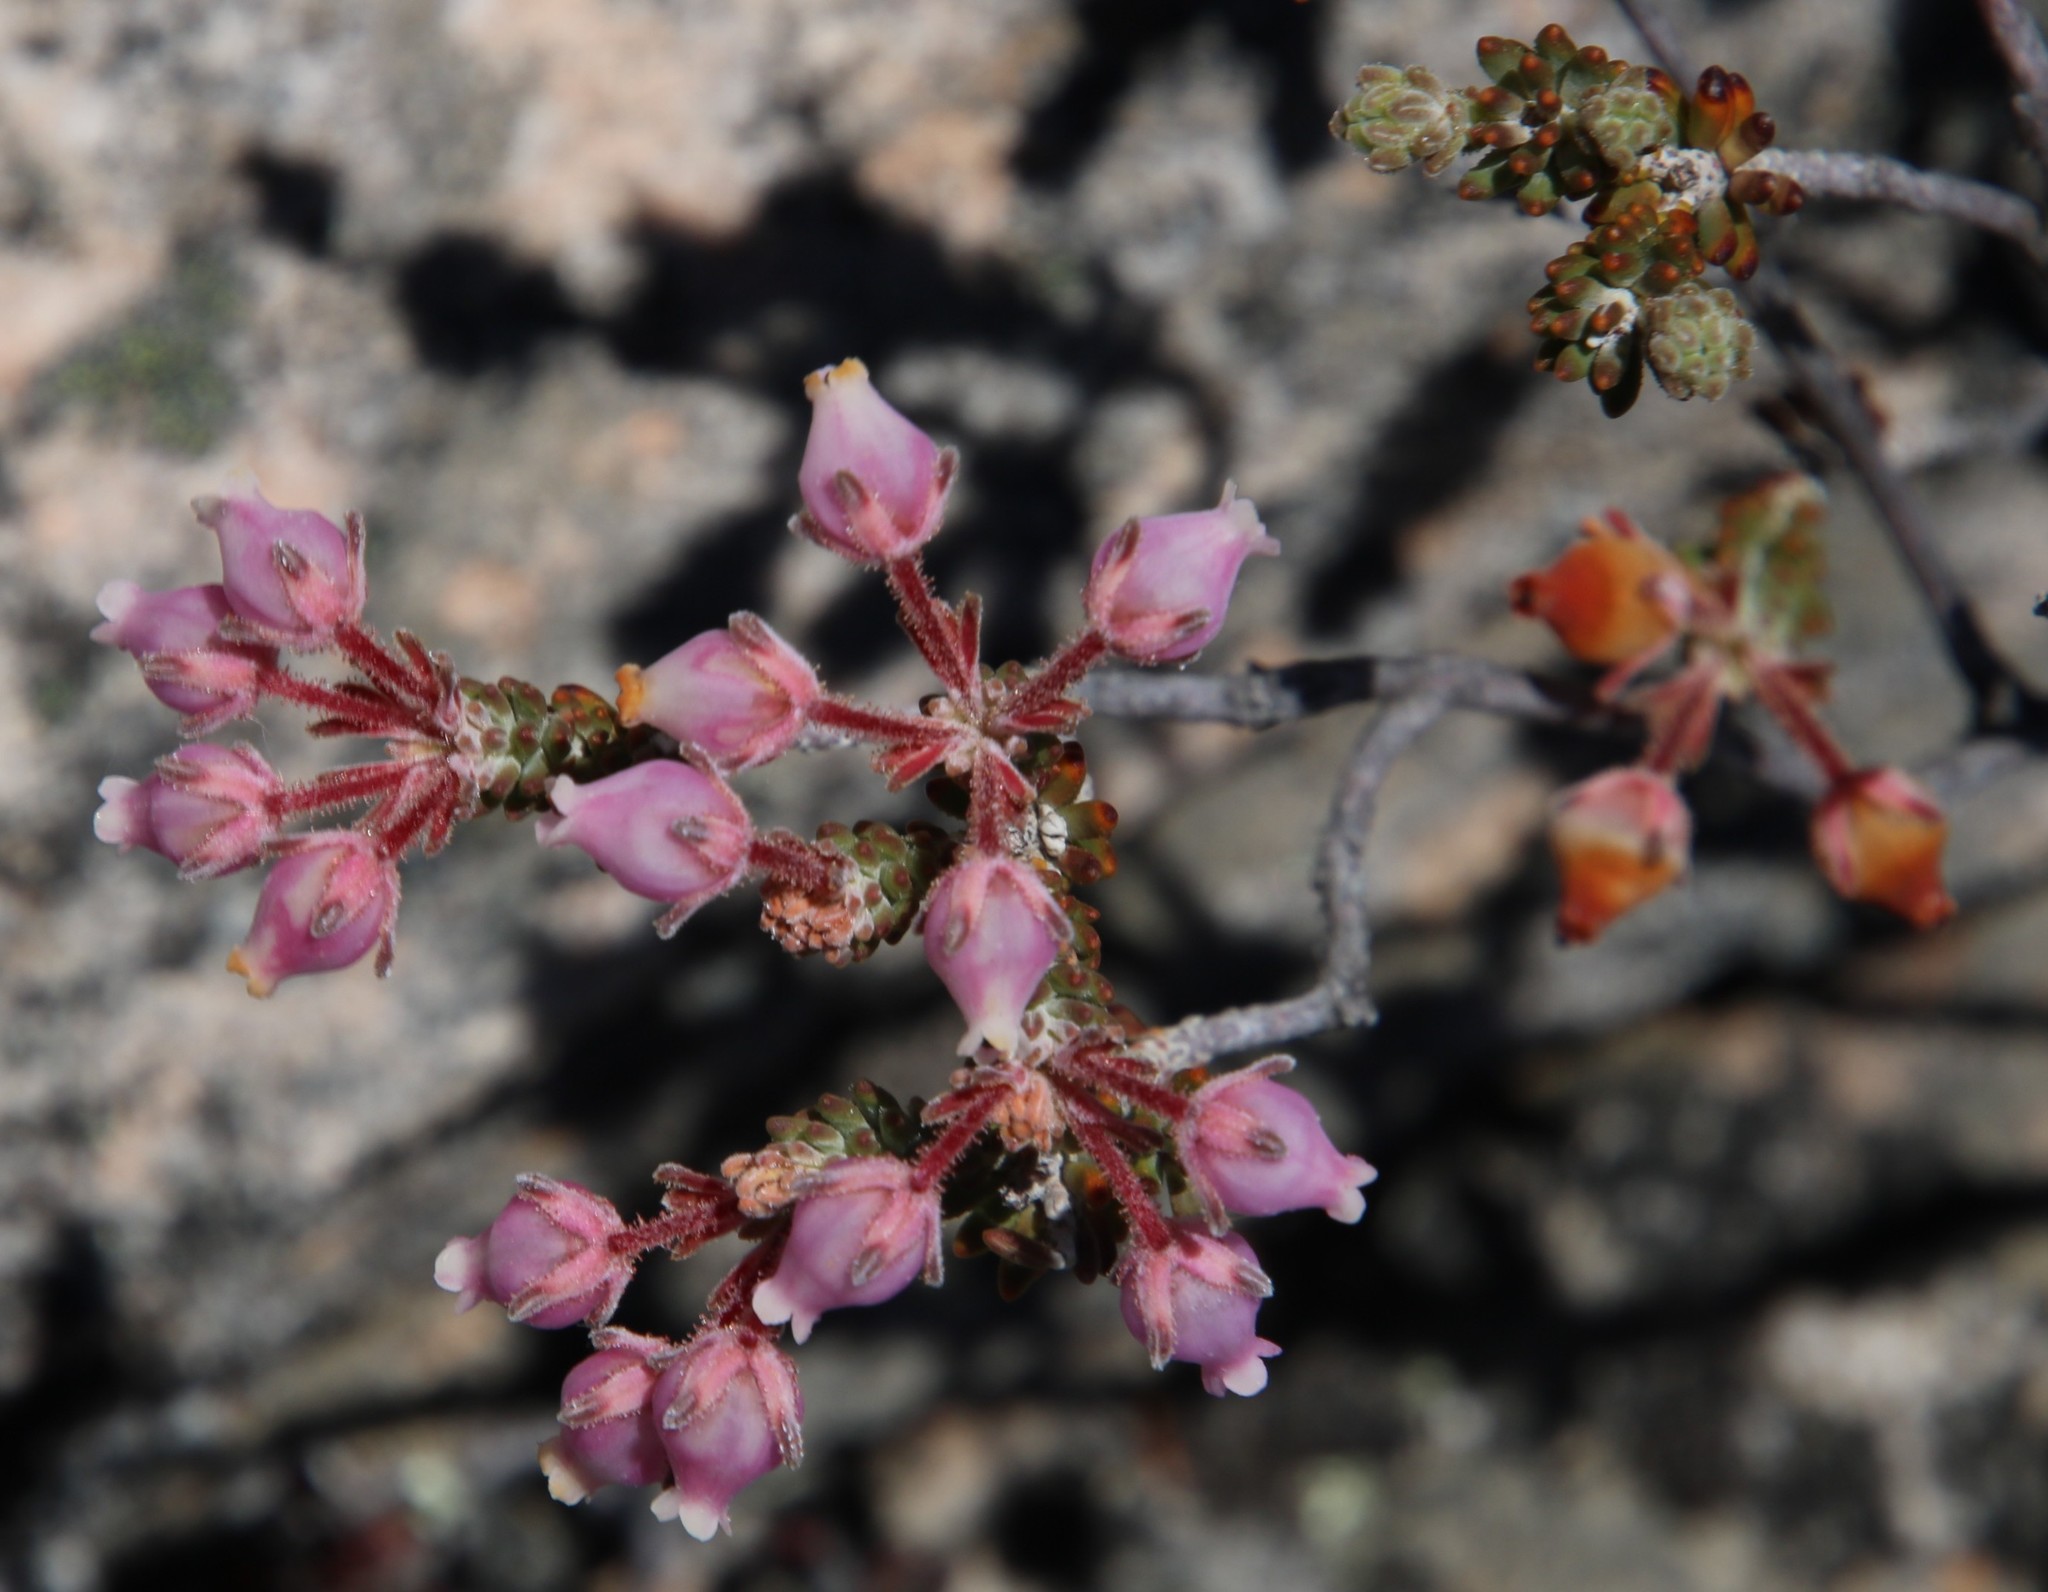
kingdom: Plantae
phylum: Tracheophyta
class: Magnoliopsida
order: Ericales
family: Ericaceae
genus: Erica
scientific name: Erica oresigena
